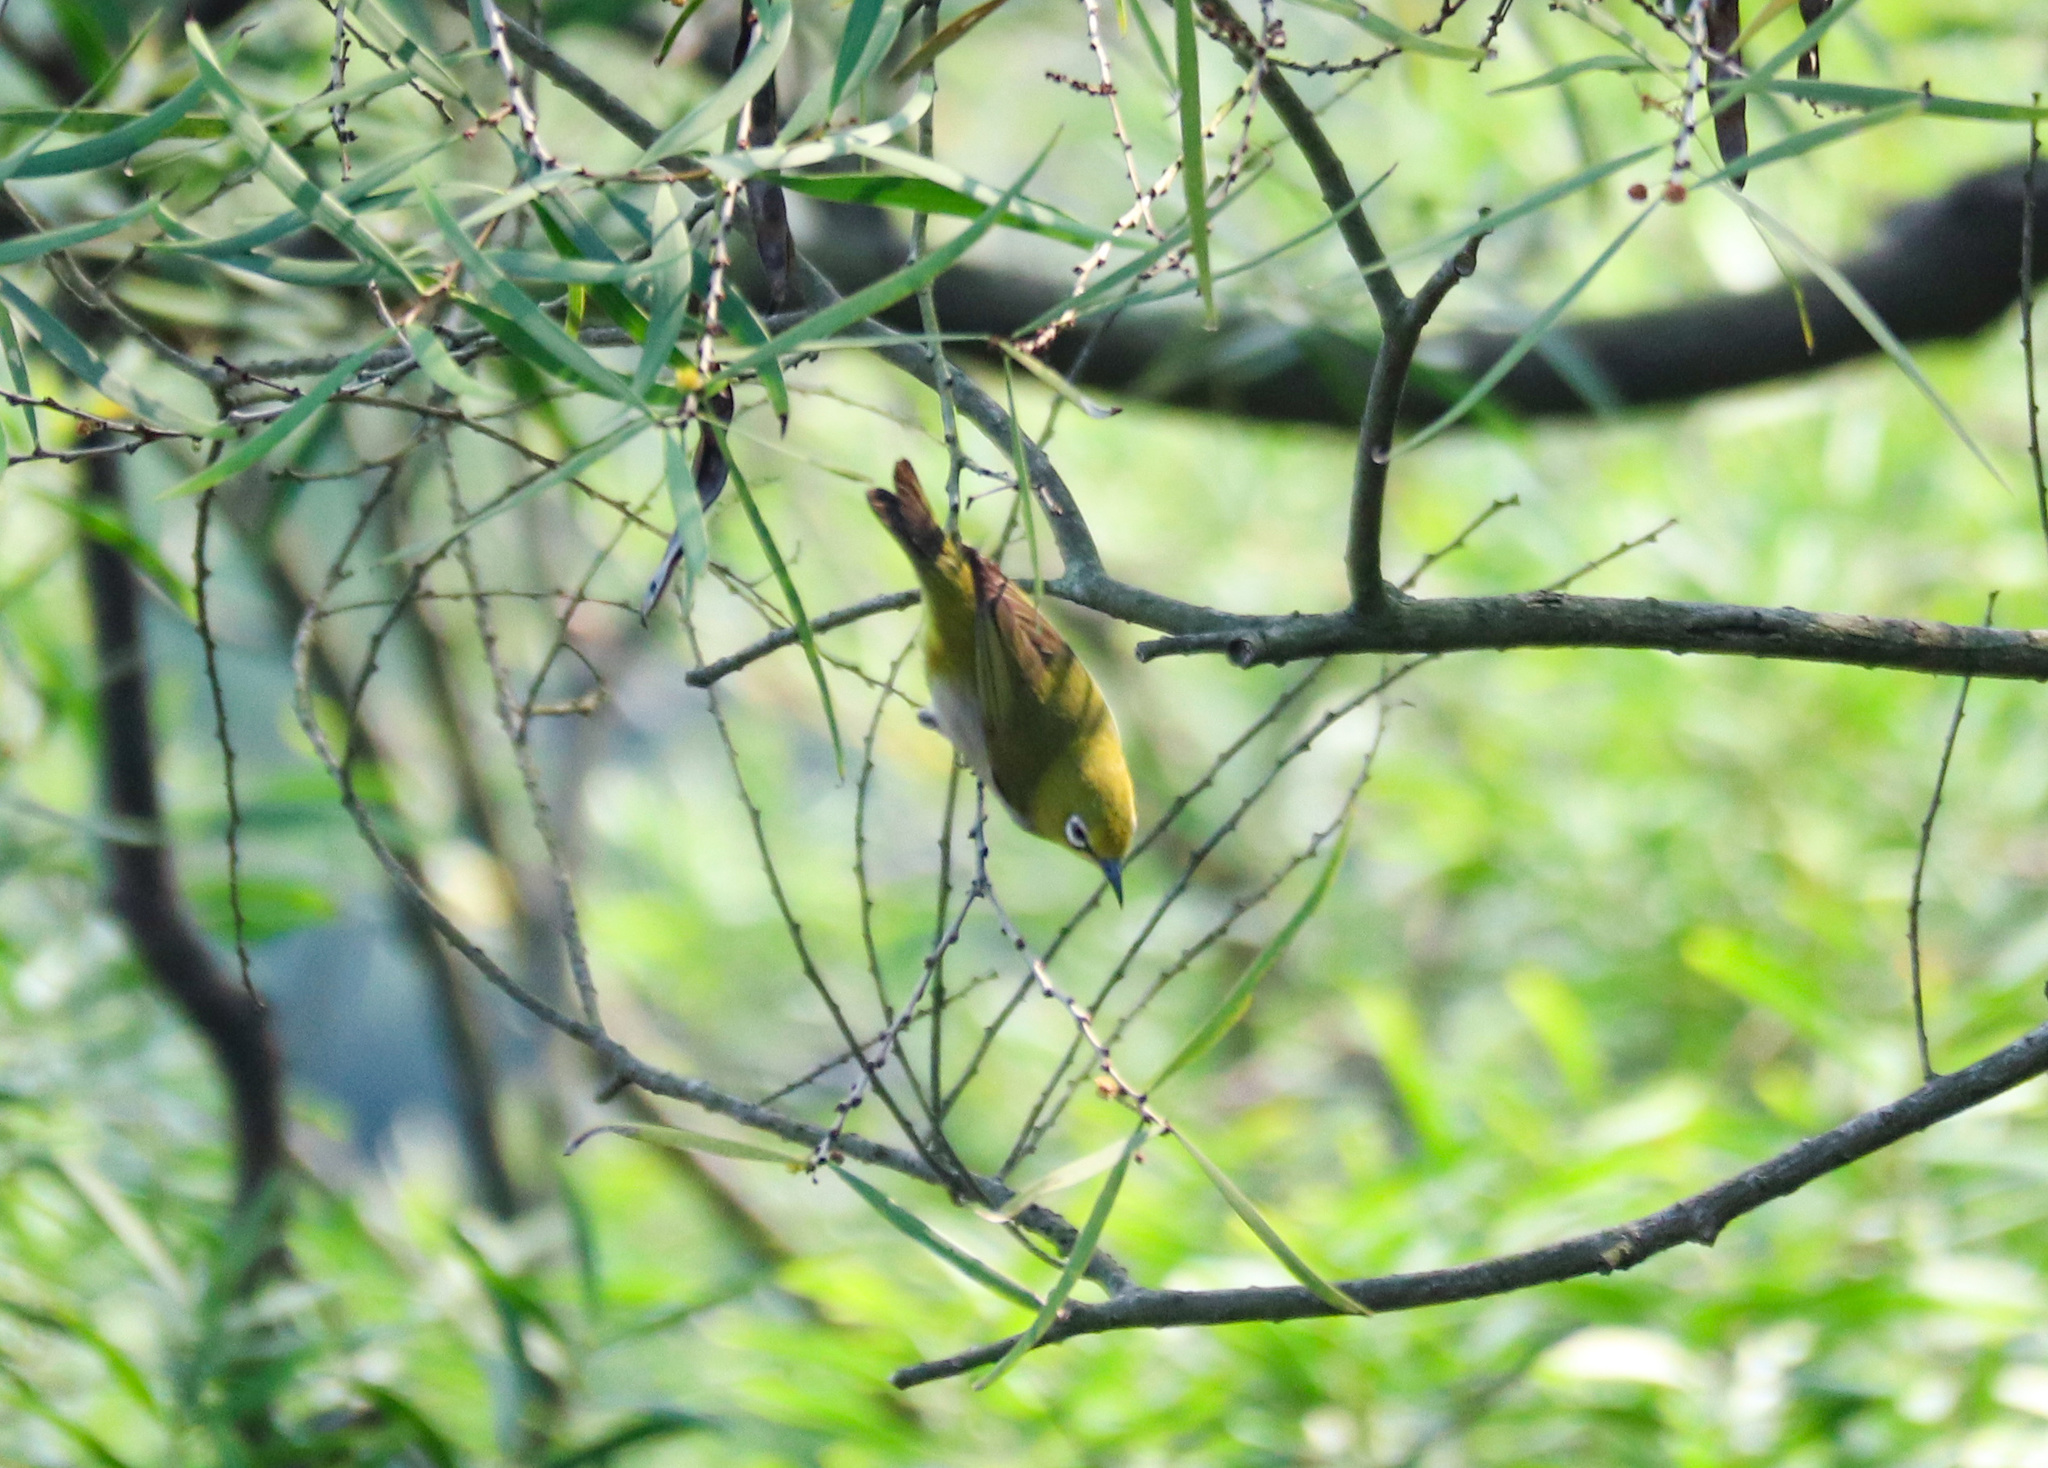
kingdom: Animalia
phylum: Chordata
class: Aves
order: Passeriformes
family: Zosteropidae
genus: Zosterops
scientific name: Zosterops simplex
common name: Swinhoe's white-eye
